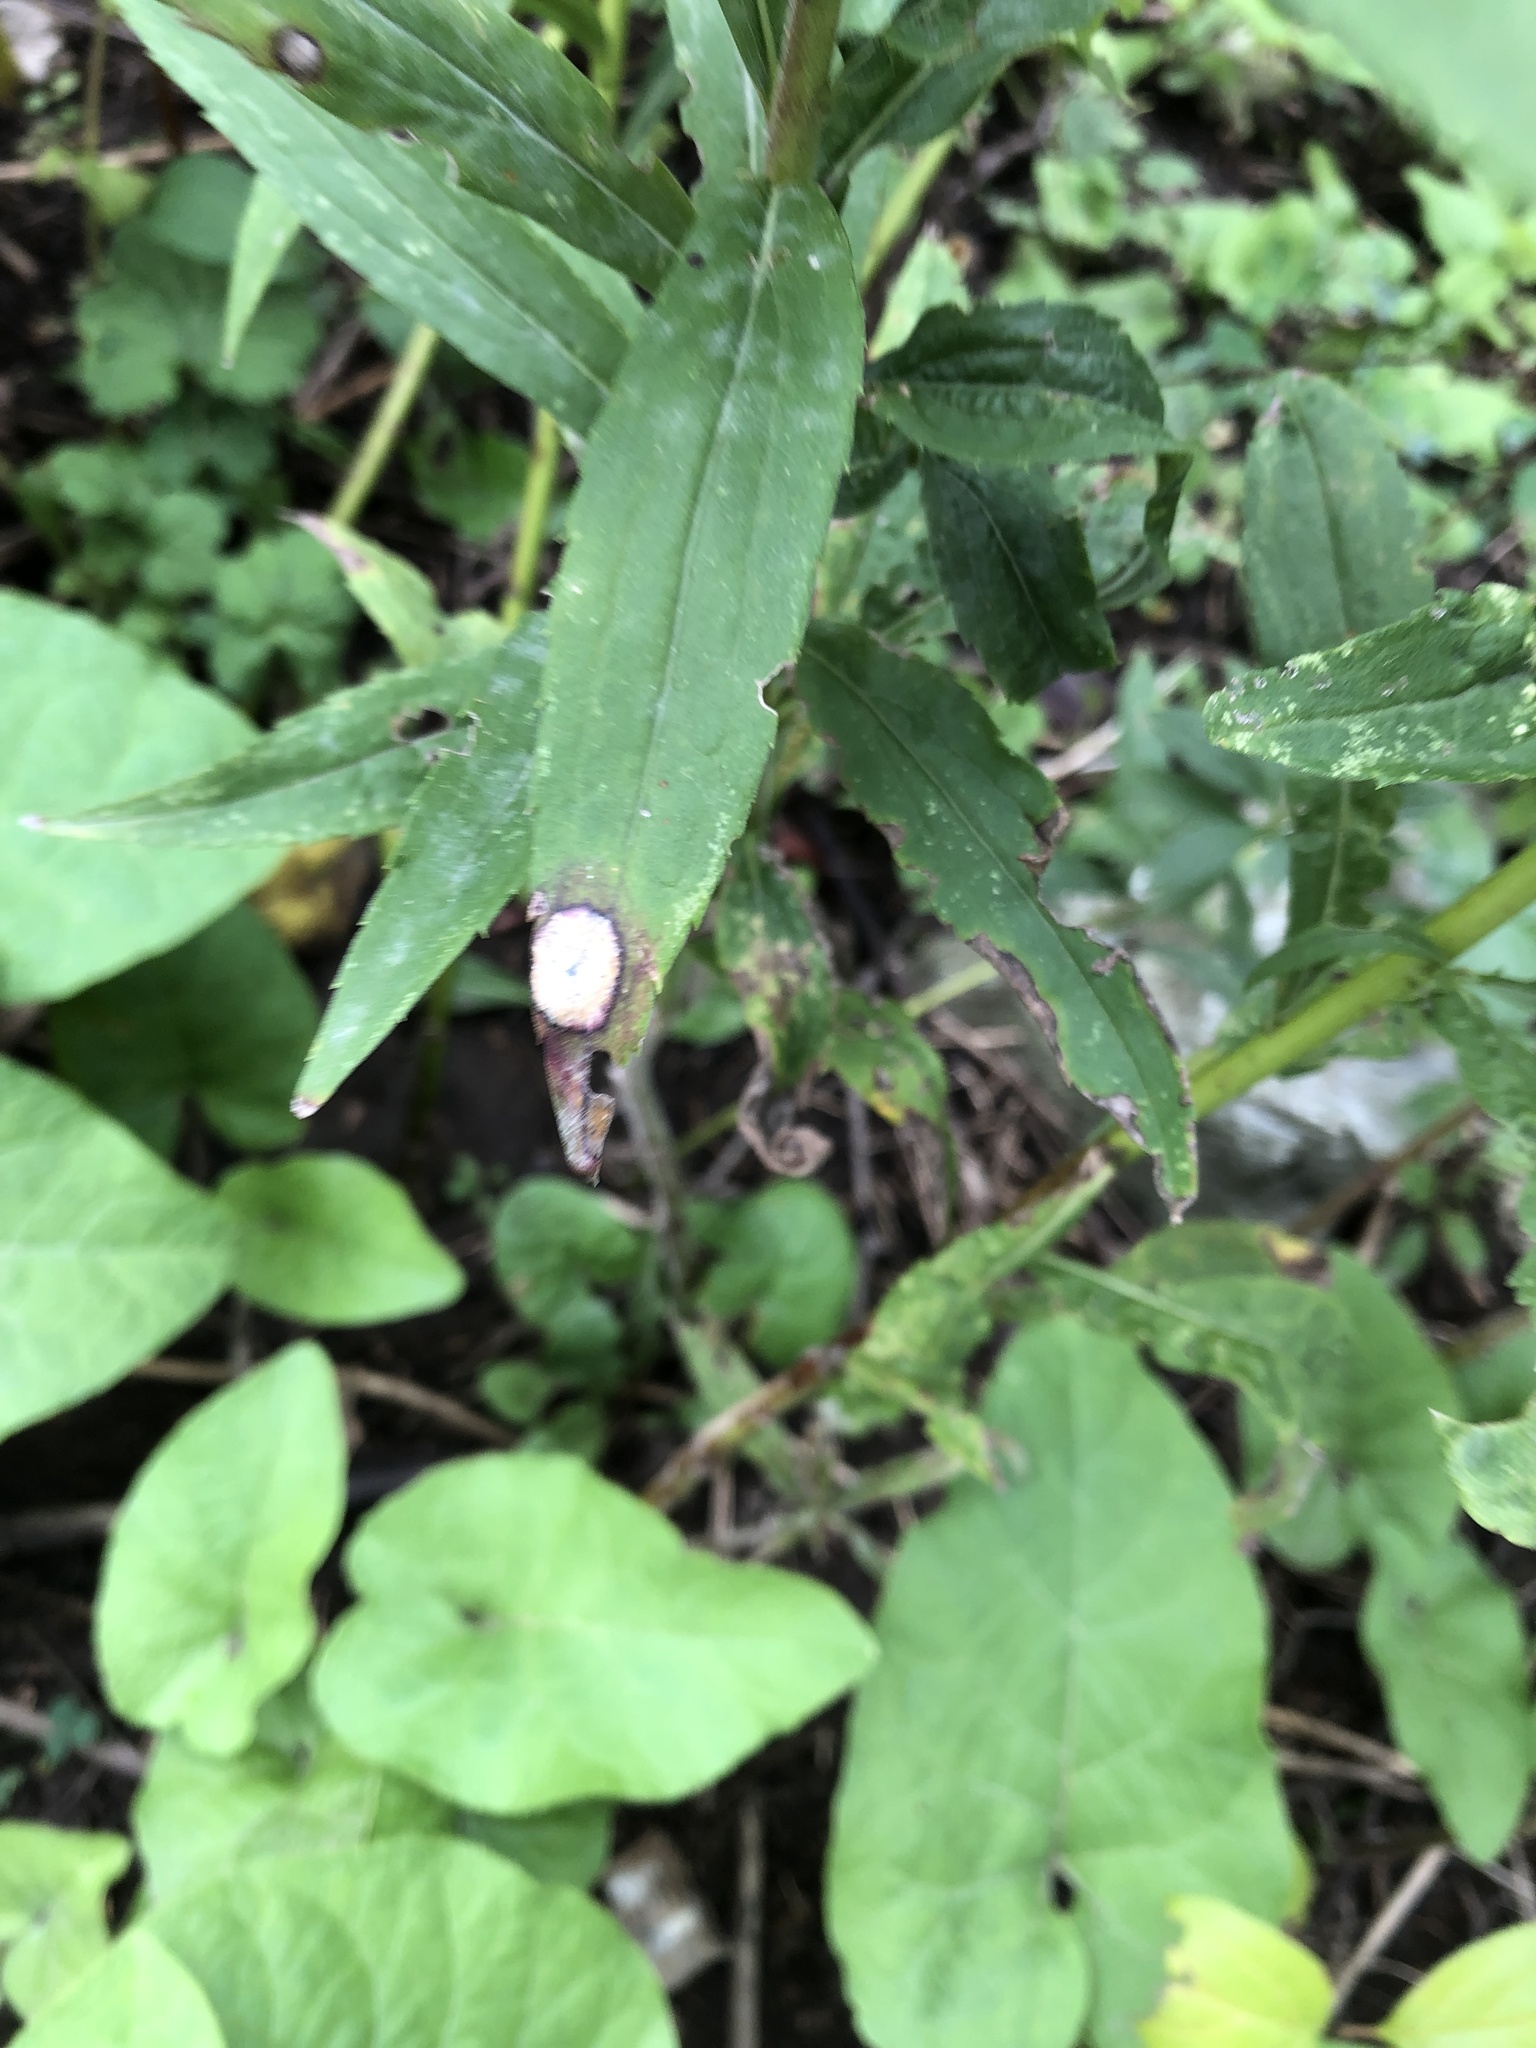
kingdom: Animalia
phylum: Arthropoda
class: Insecta
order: Diptera
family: Cecidomyiidae
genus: Asteromyia
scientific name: Asteromyia carbonifera
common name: Carbonifera goldenrod gall midge
